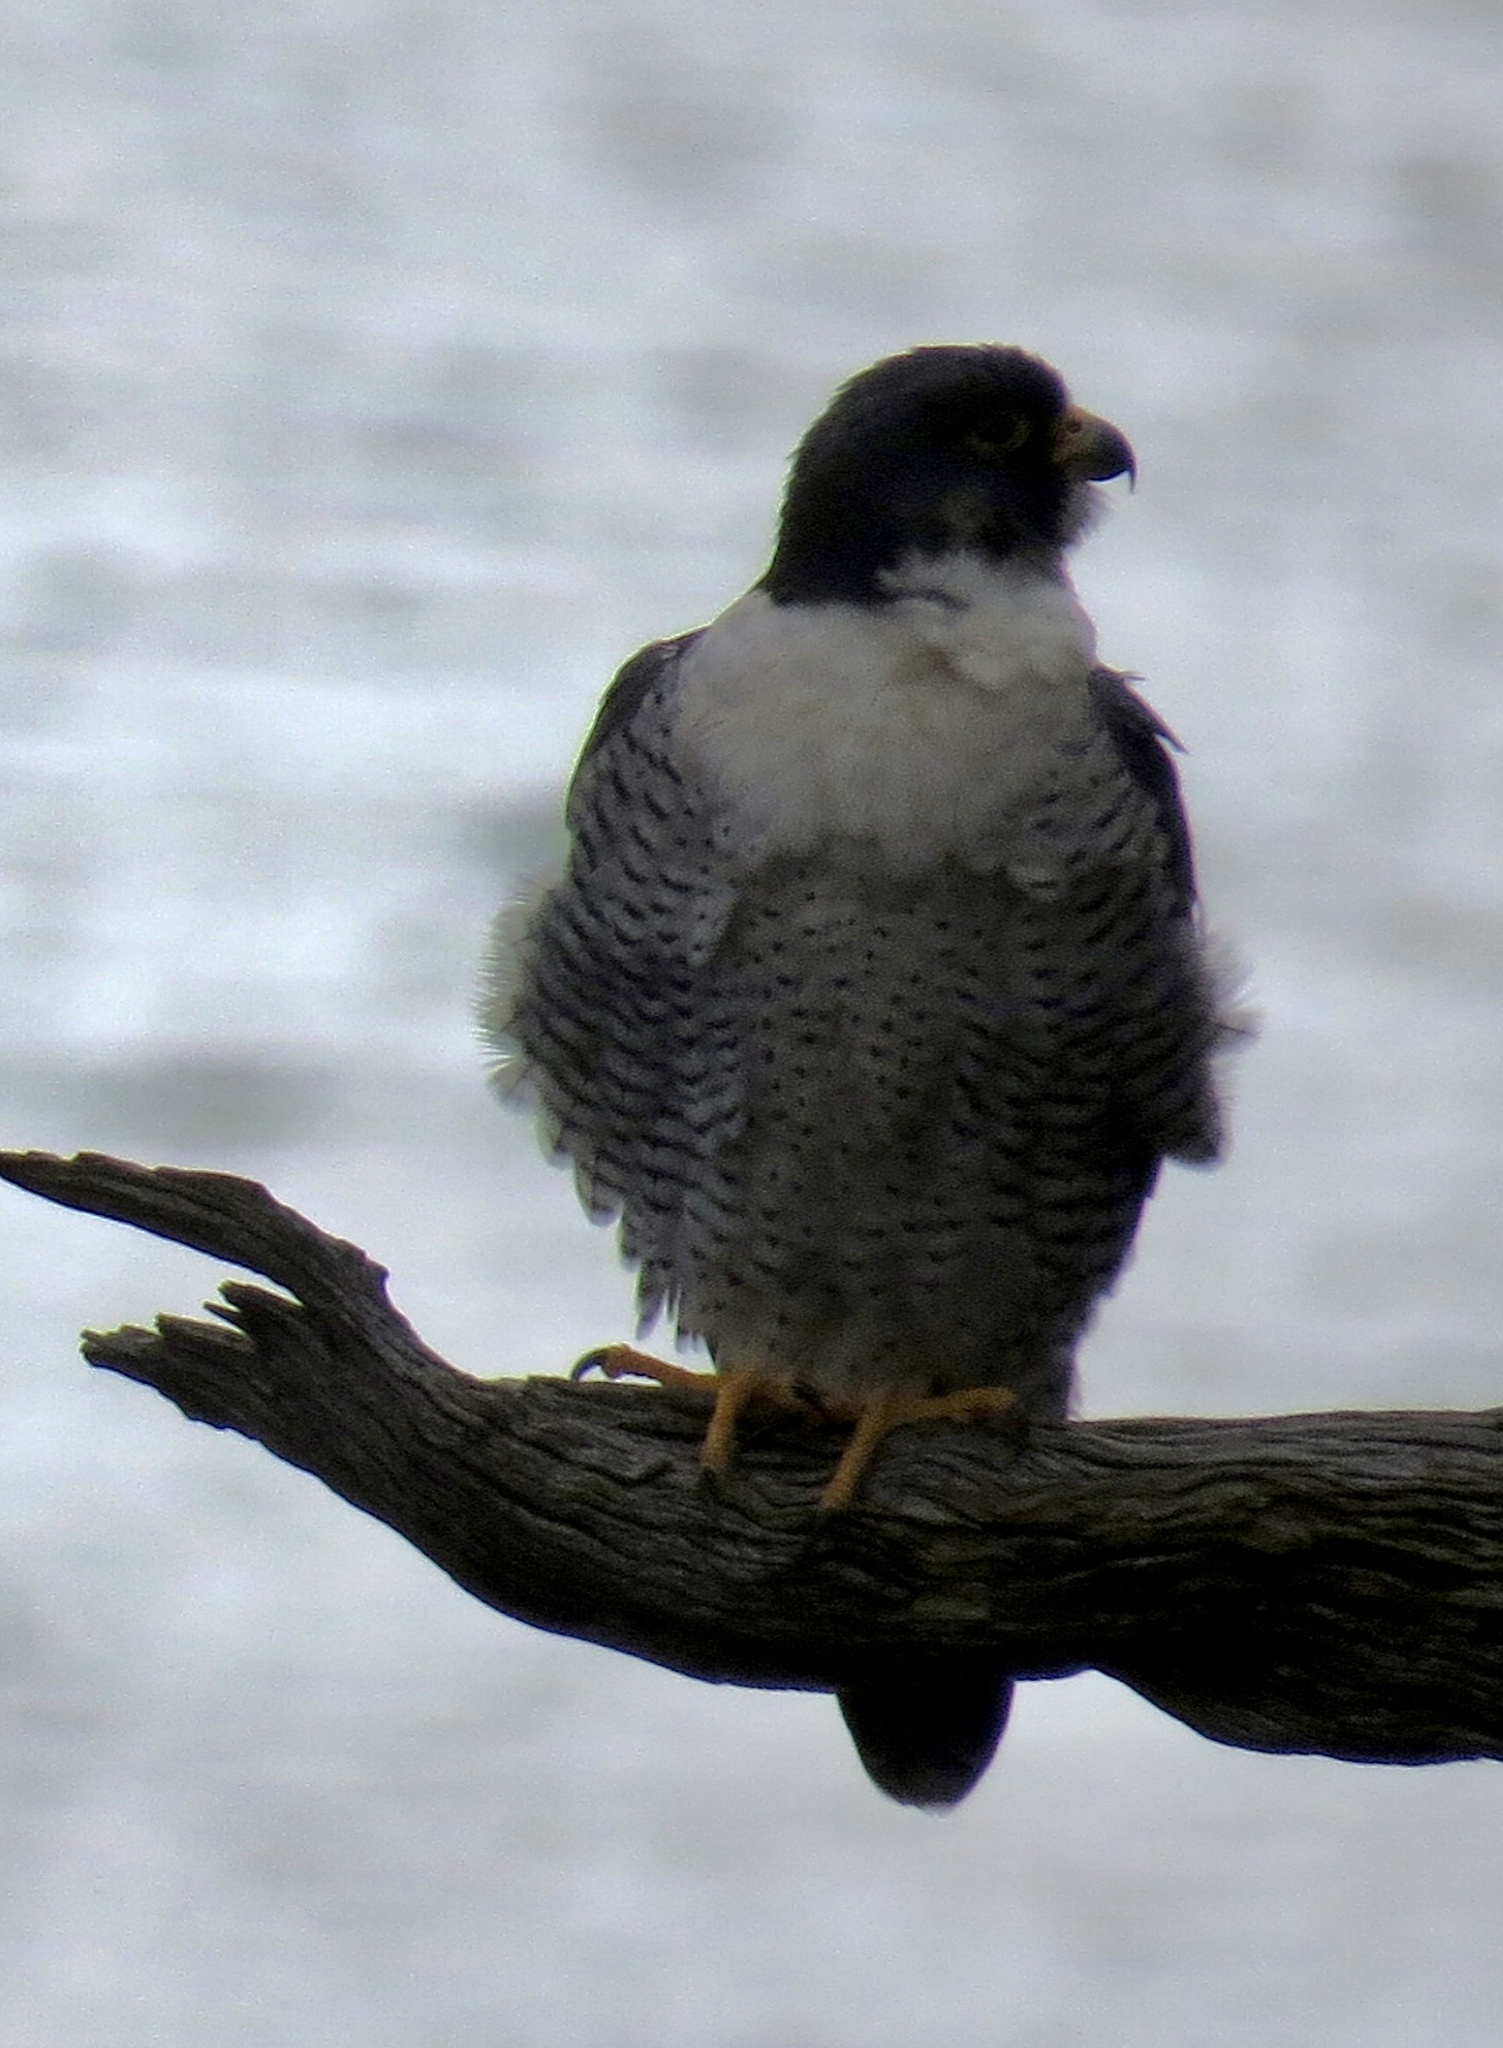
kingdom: Animalia
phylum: Chordata
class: Aves
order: Falconiformes
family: Falconidae
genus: Falco
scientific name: Falco peregrinus
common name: Peregrine falcon
